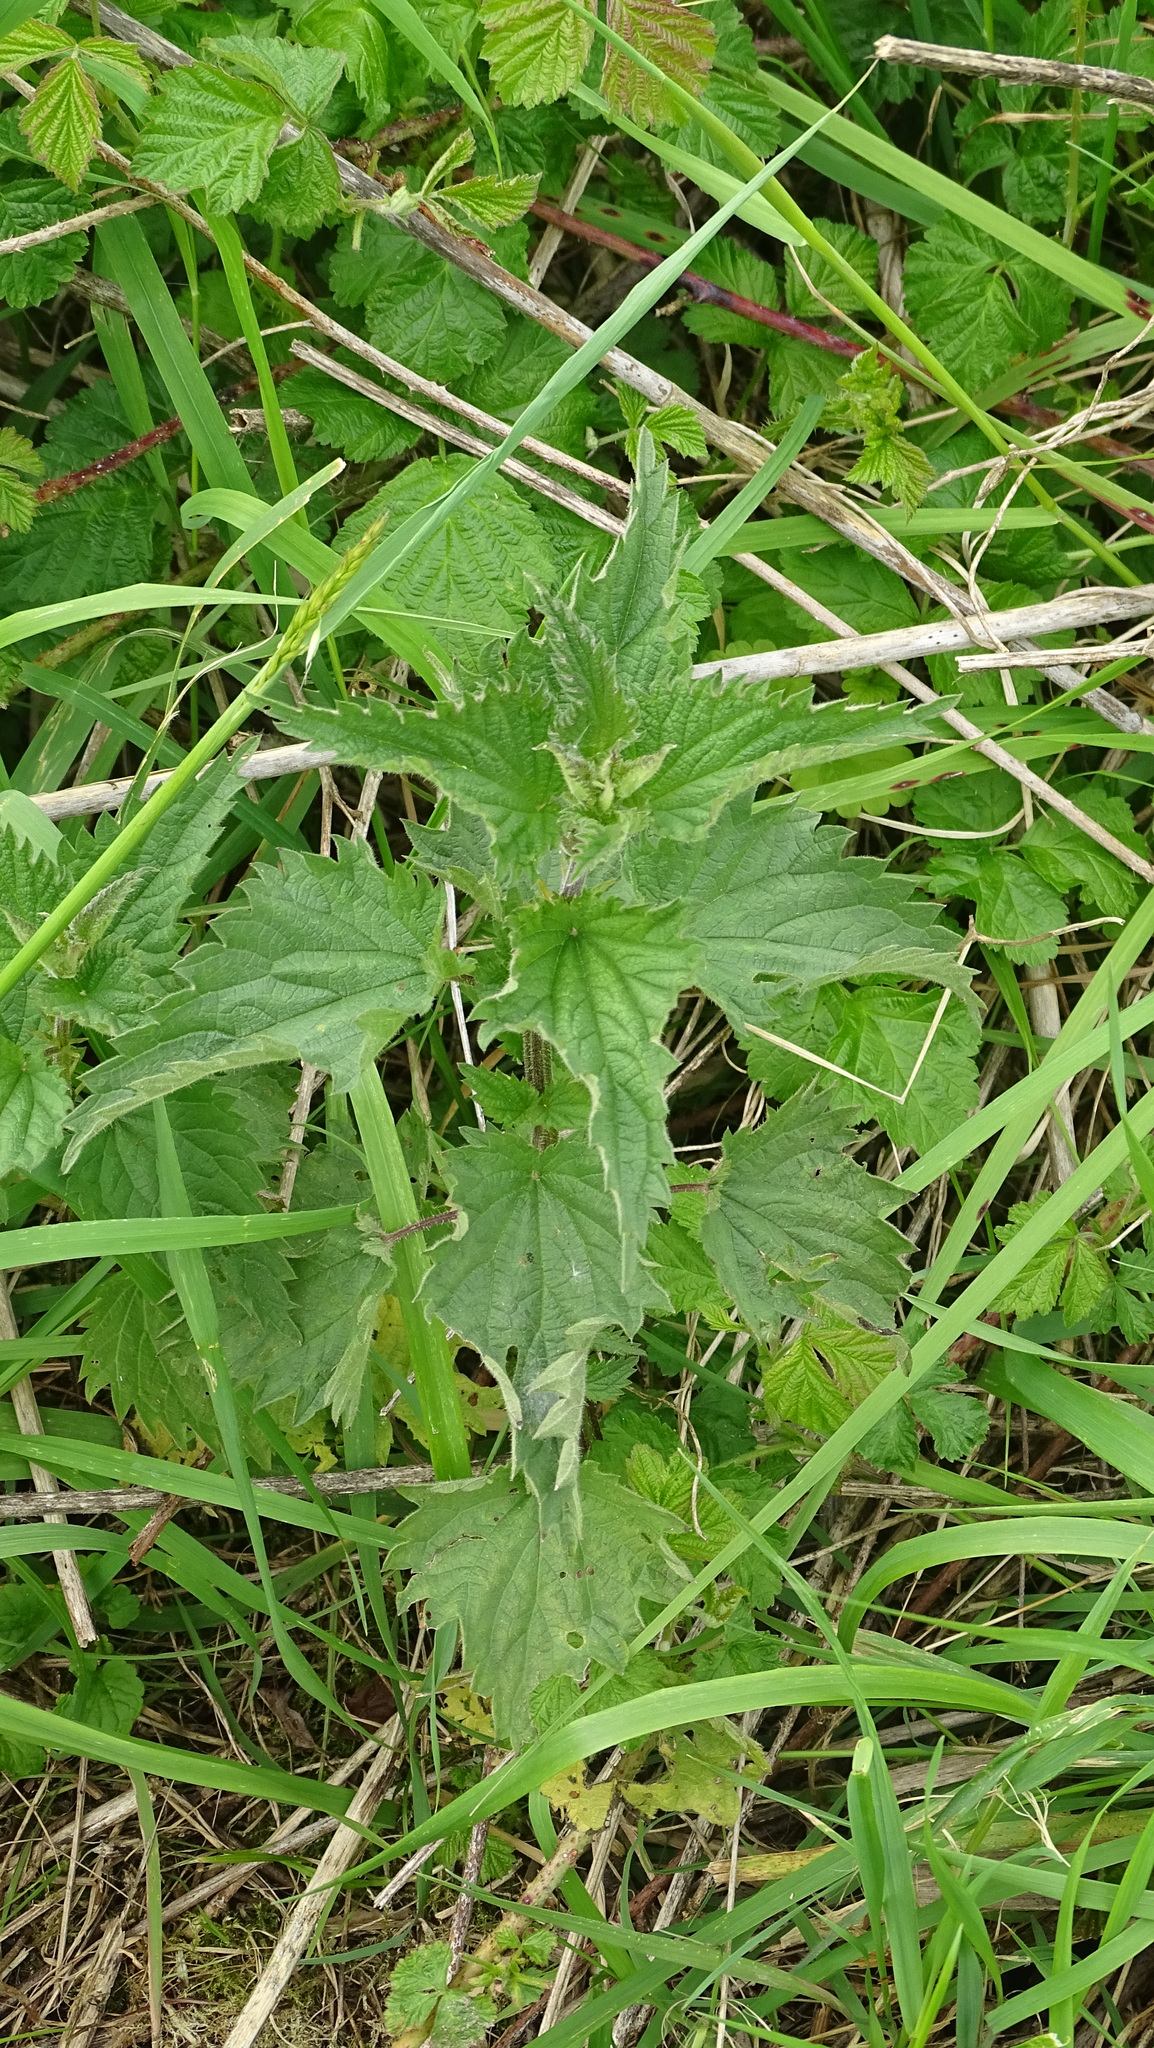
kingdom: Plantae
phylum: Tracheophyta
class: Magnoliopsida
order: Rosales
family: Urticaceae
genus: Urtica
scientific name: Urtica dioica
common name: Common nettle
